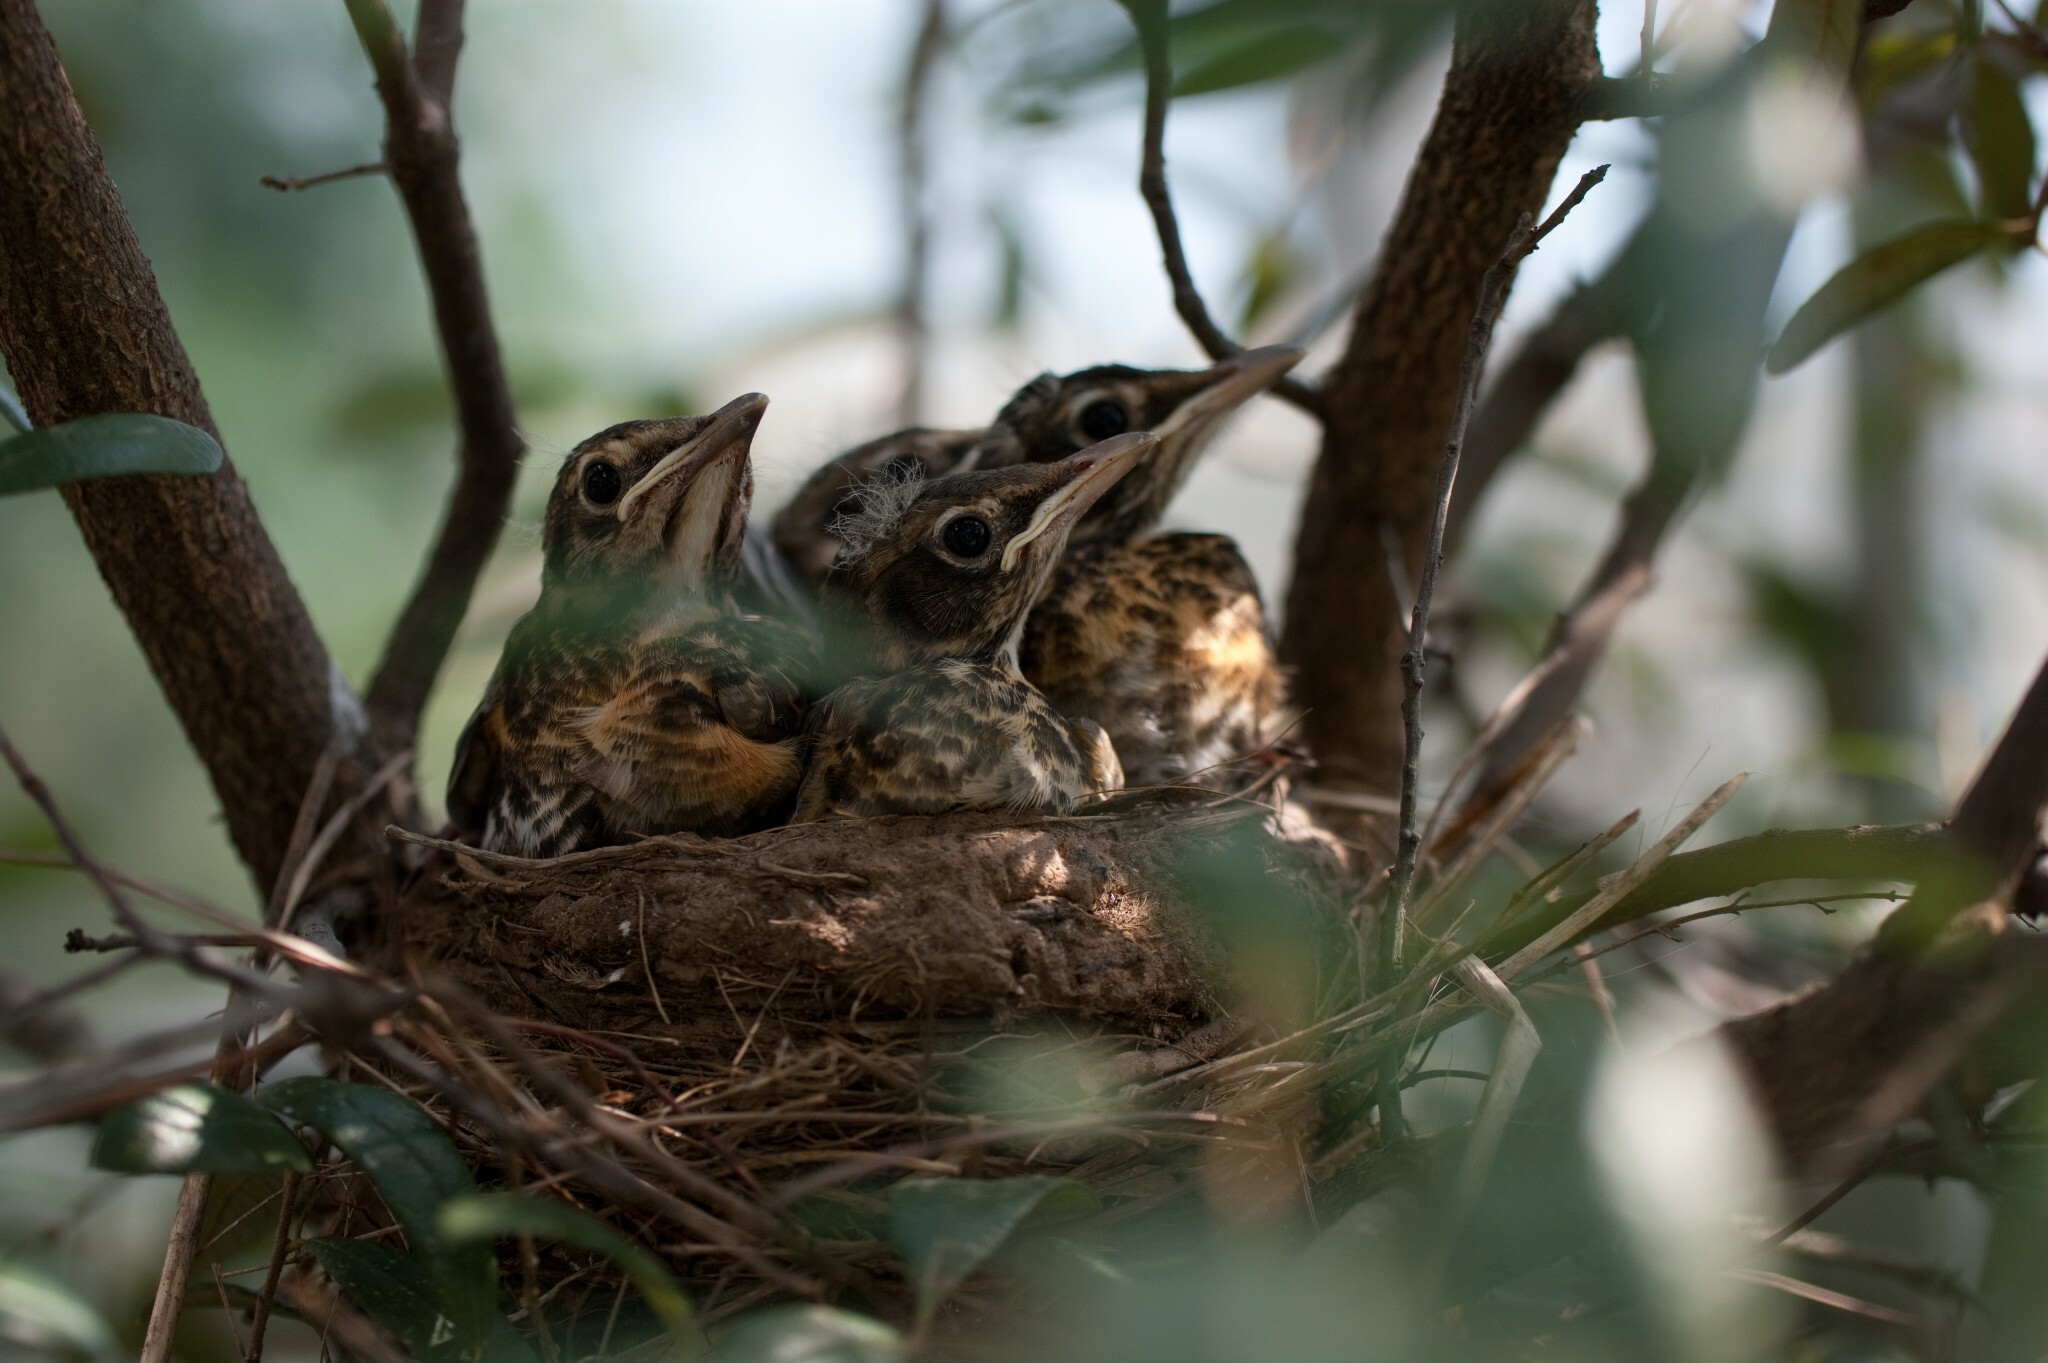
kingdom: Animalia
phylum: Chordata
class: Aves
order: Passeriformes
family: Turdidae
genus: Turdus
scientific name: Turdus migratorius
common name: American robin
